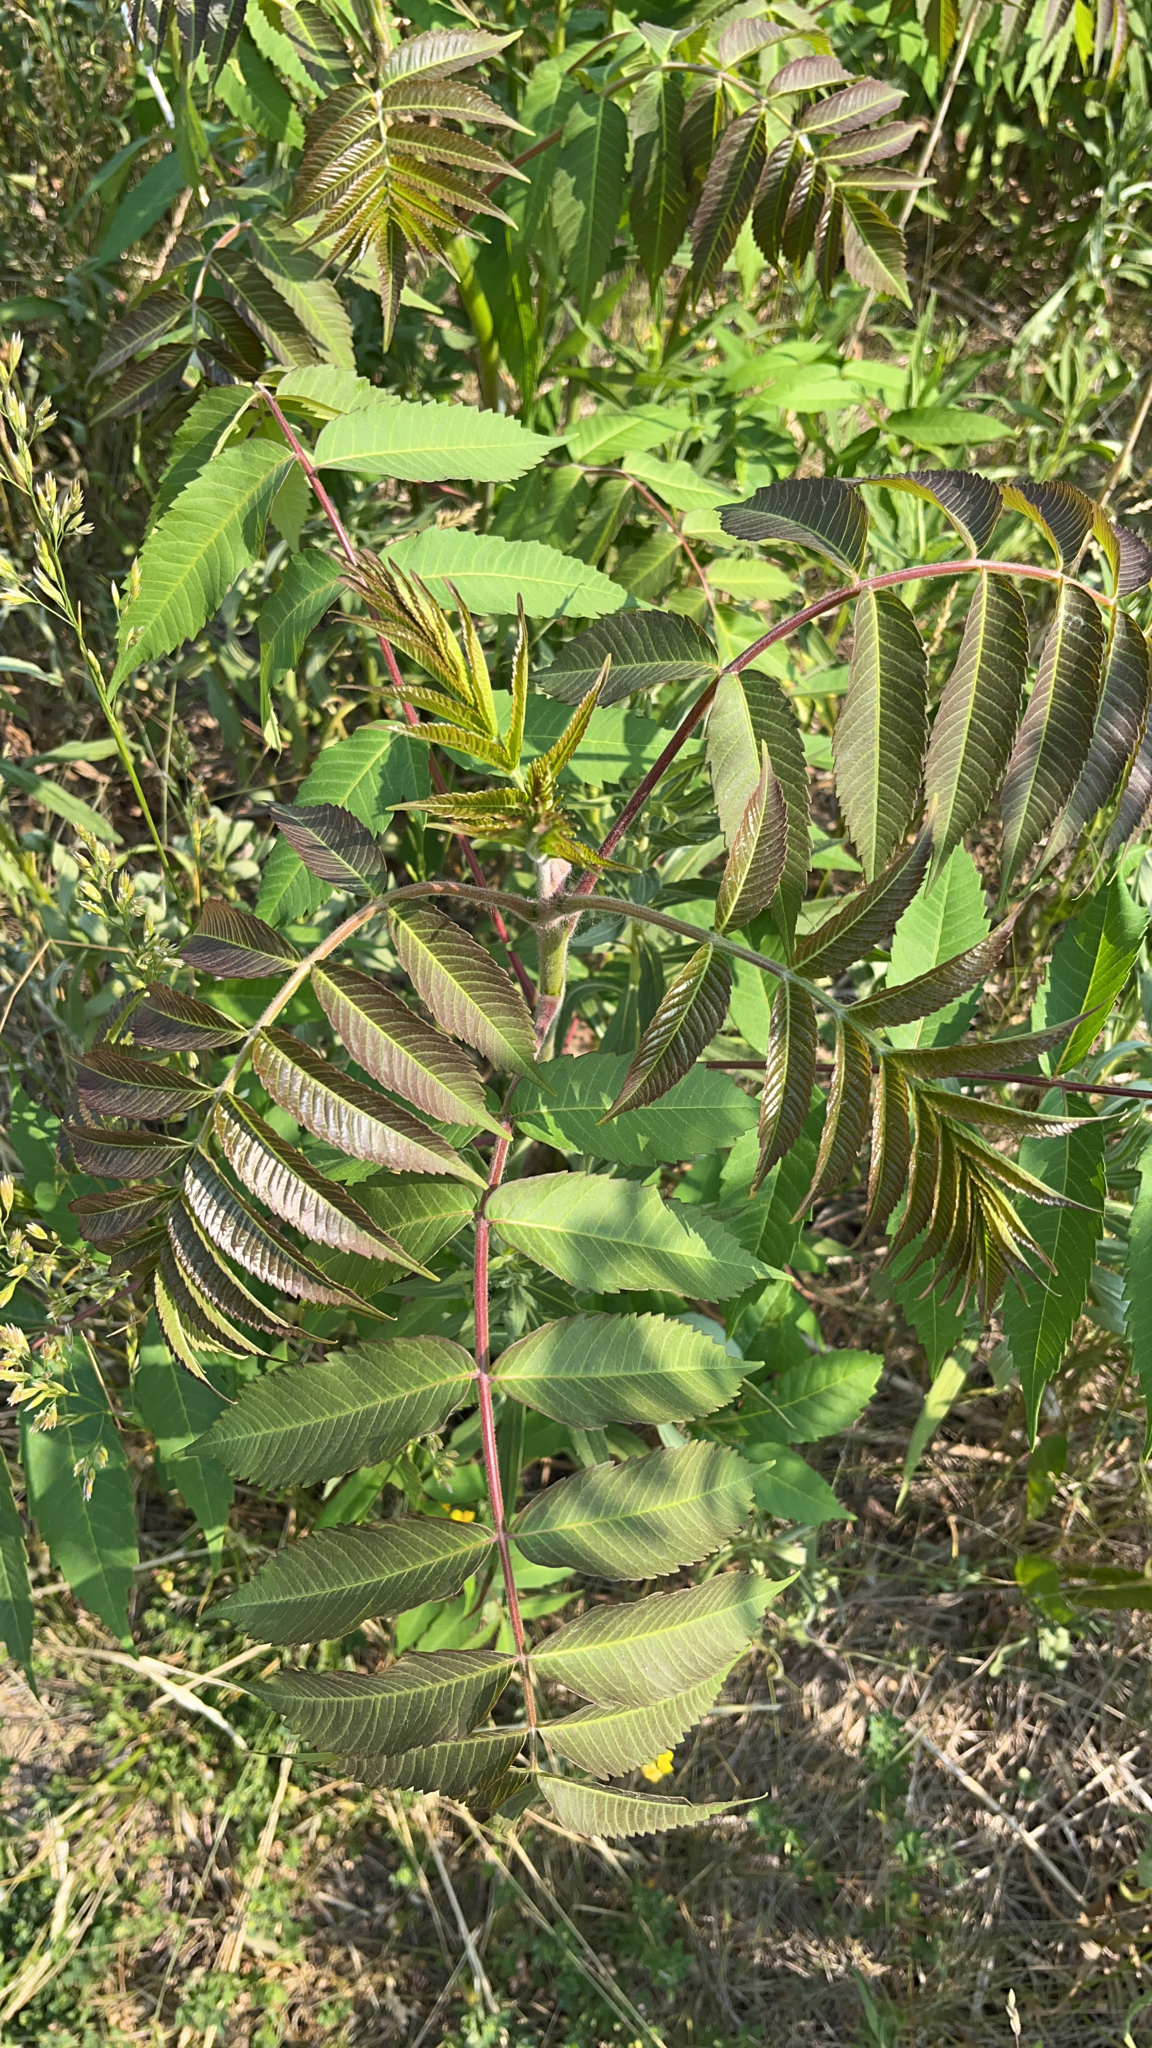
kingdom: Plantae
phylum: Tracheophyta
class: Magnoliopsida
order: Sapindales
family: Anacardiaceae
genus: Rhus
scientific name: Rhus typhina
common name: Staghorn sumac
